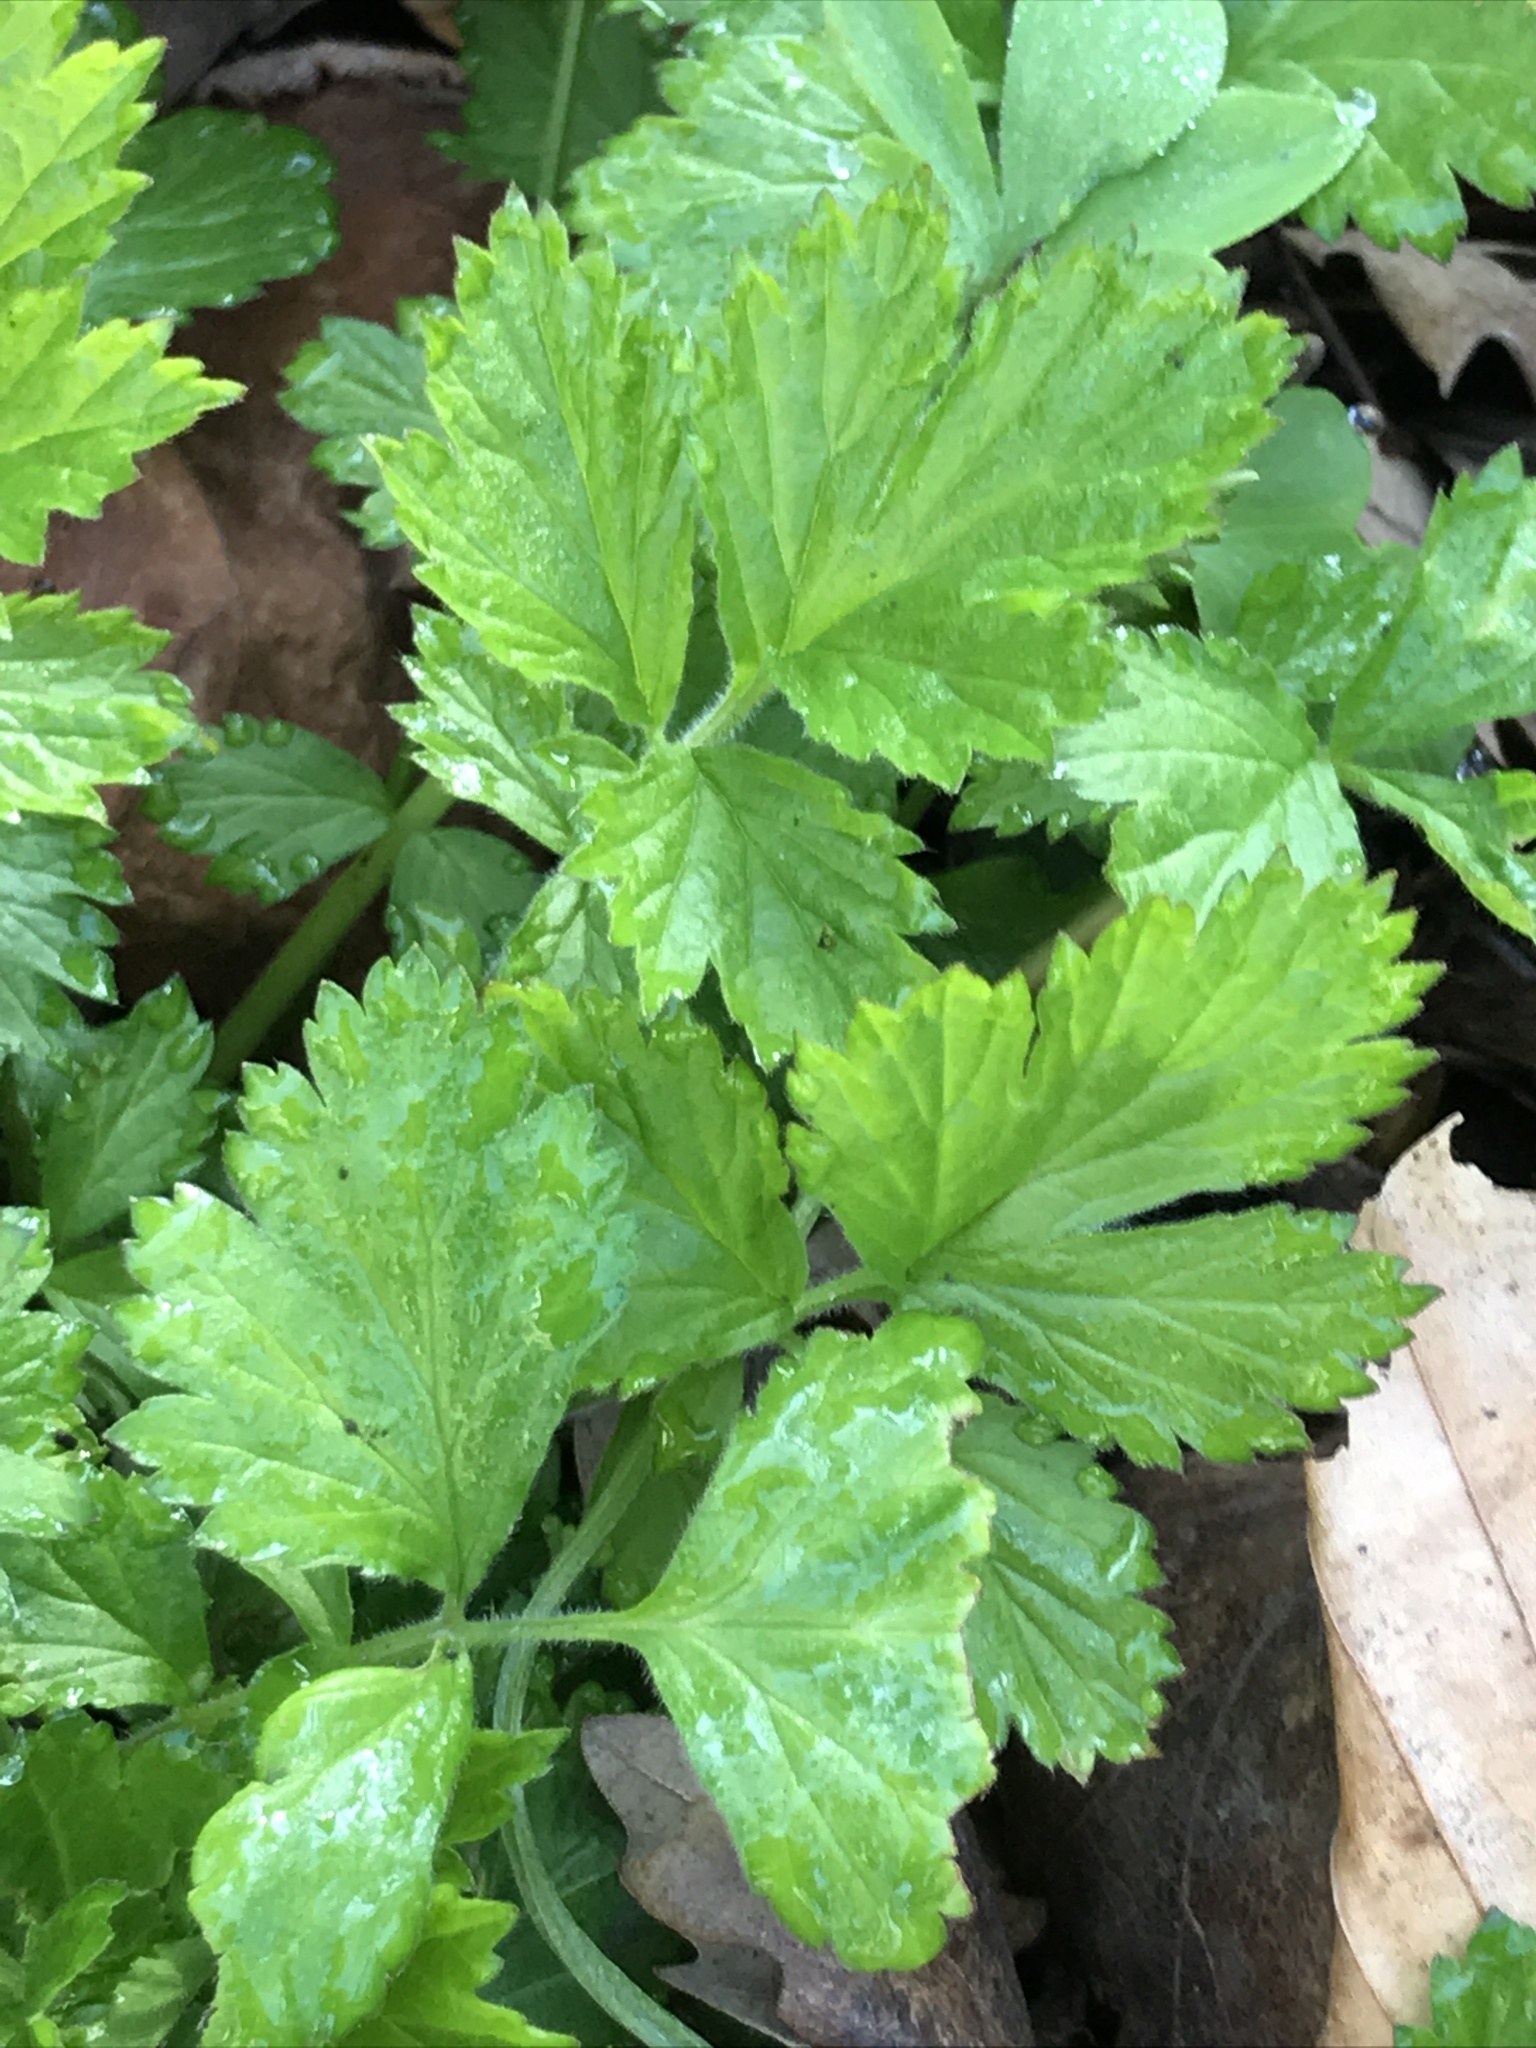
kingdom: Plantae
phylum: Tracheophyta
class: Magnoliopsida
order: Rosales
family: Rosaceae
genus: Geum
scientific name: Geum urbanum
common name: Wood avens
